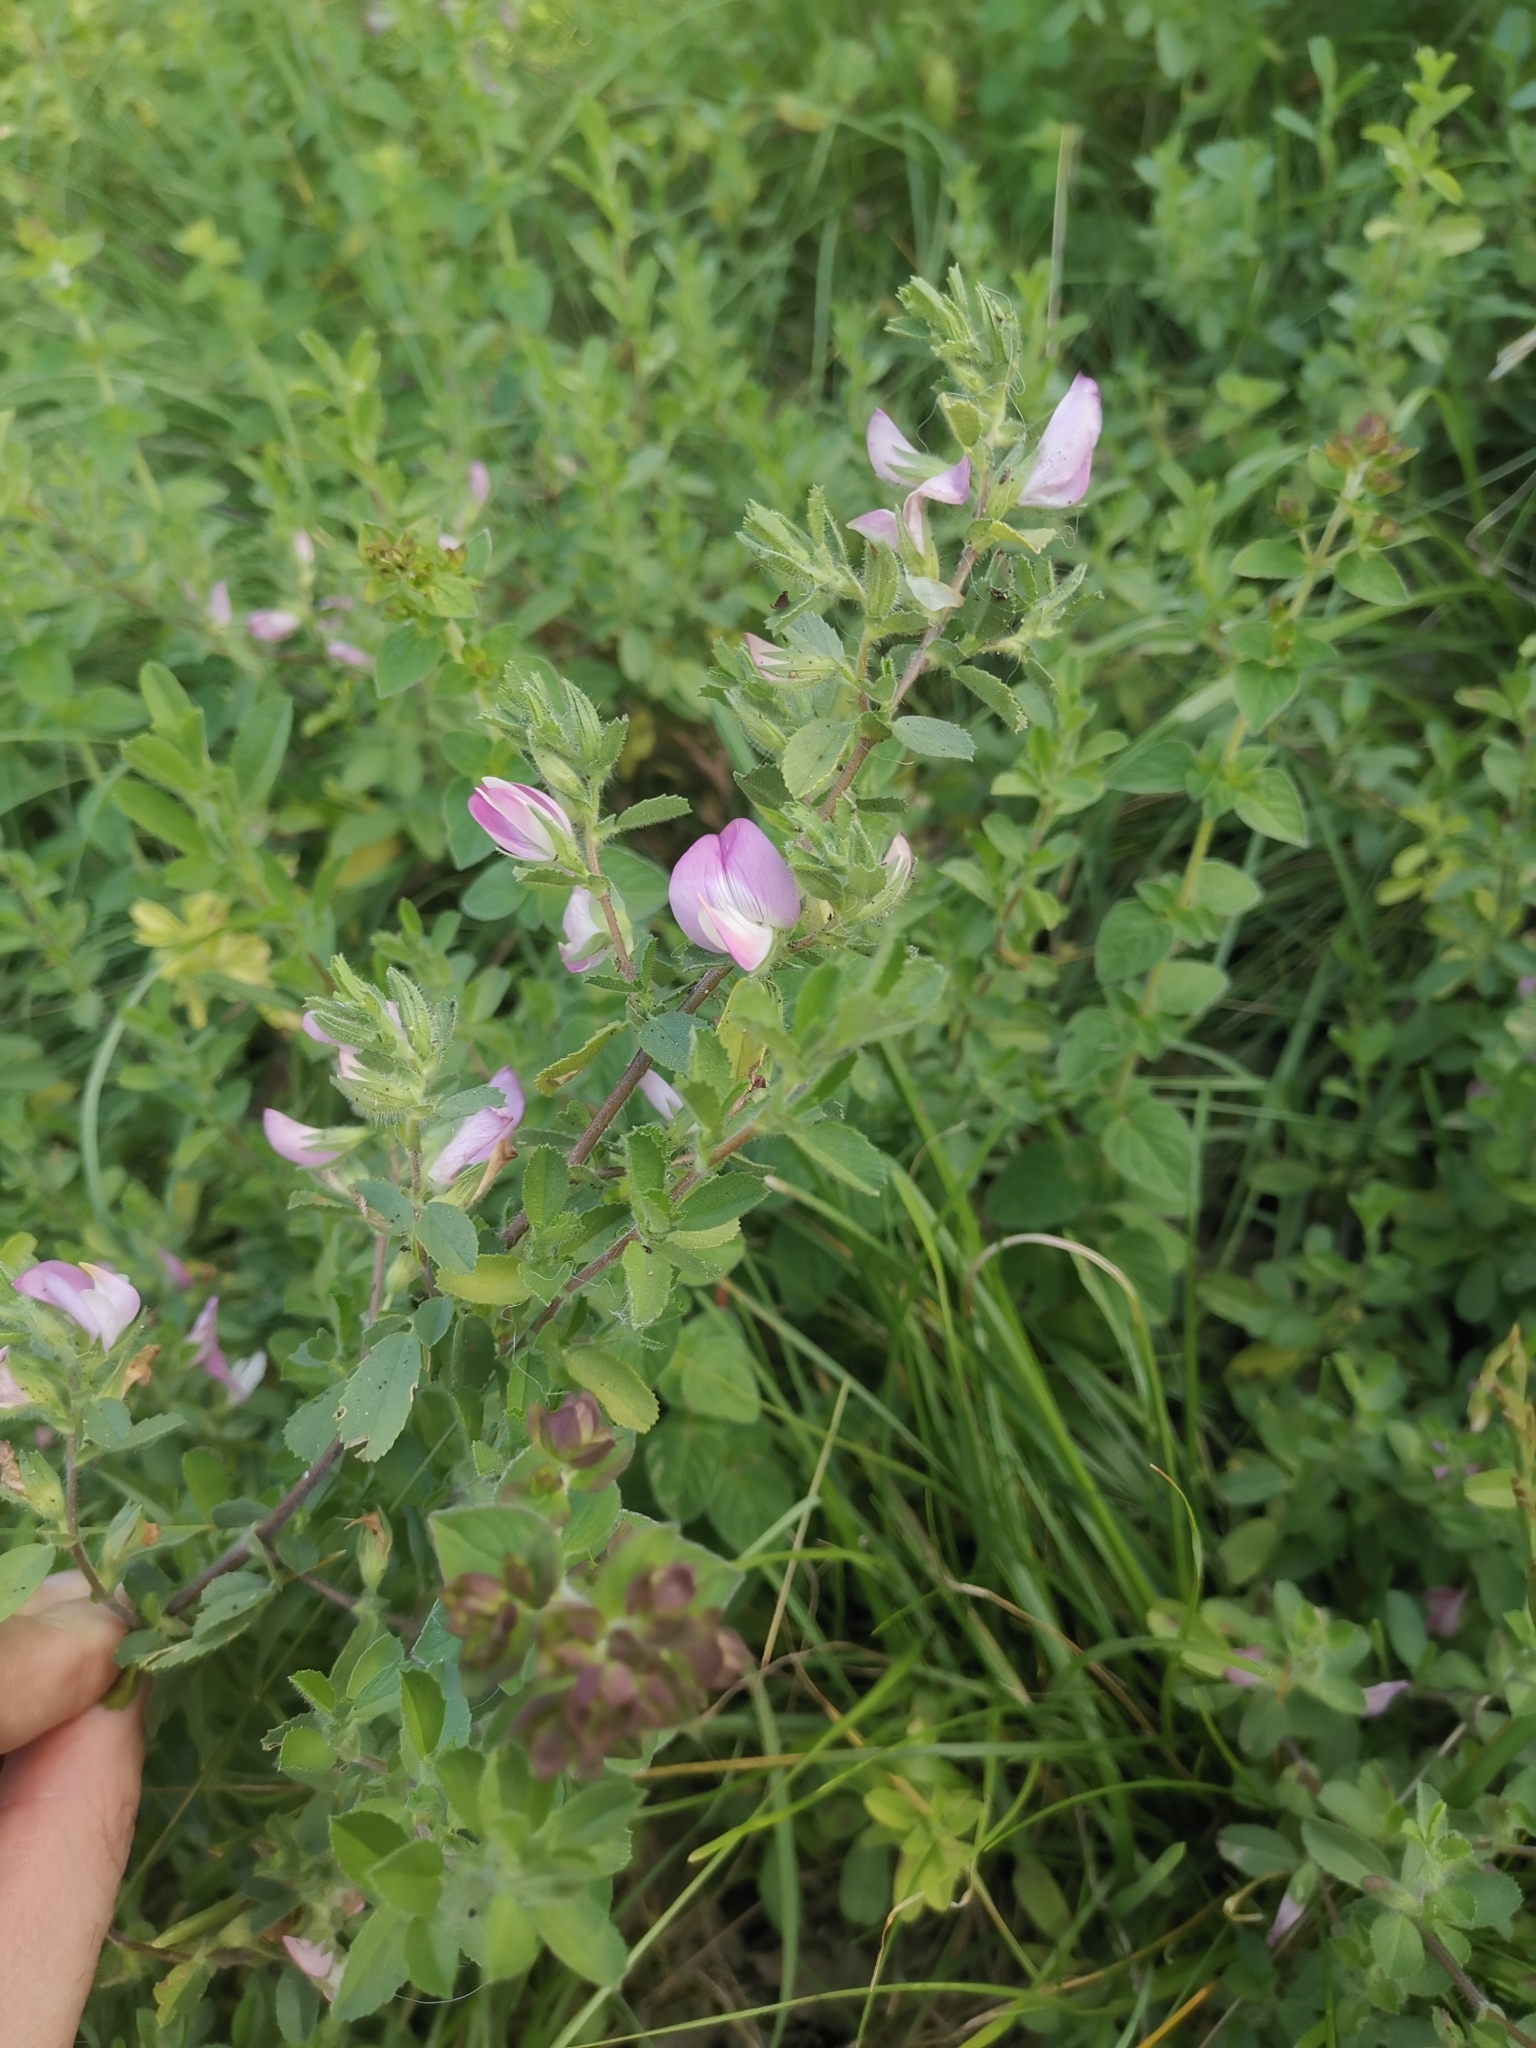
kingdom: Plantae
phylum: Tracheophyta
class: Magnoliopsida
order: Fabales
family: Fabaceae
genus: Ononis
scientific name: Ononis spinosa
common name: Spiny restharrow
